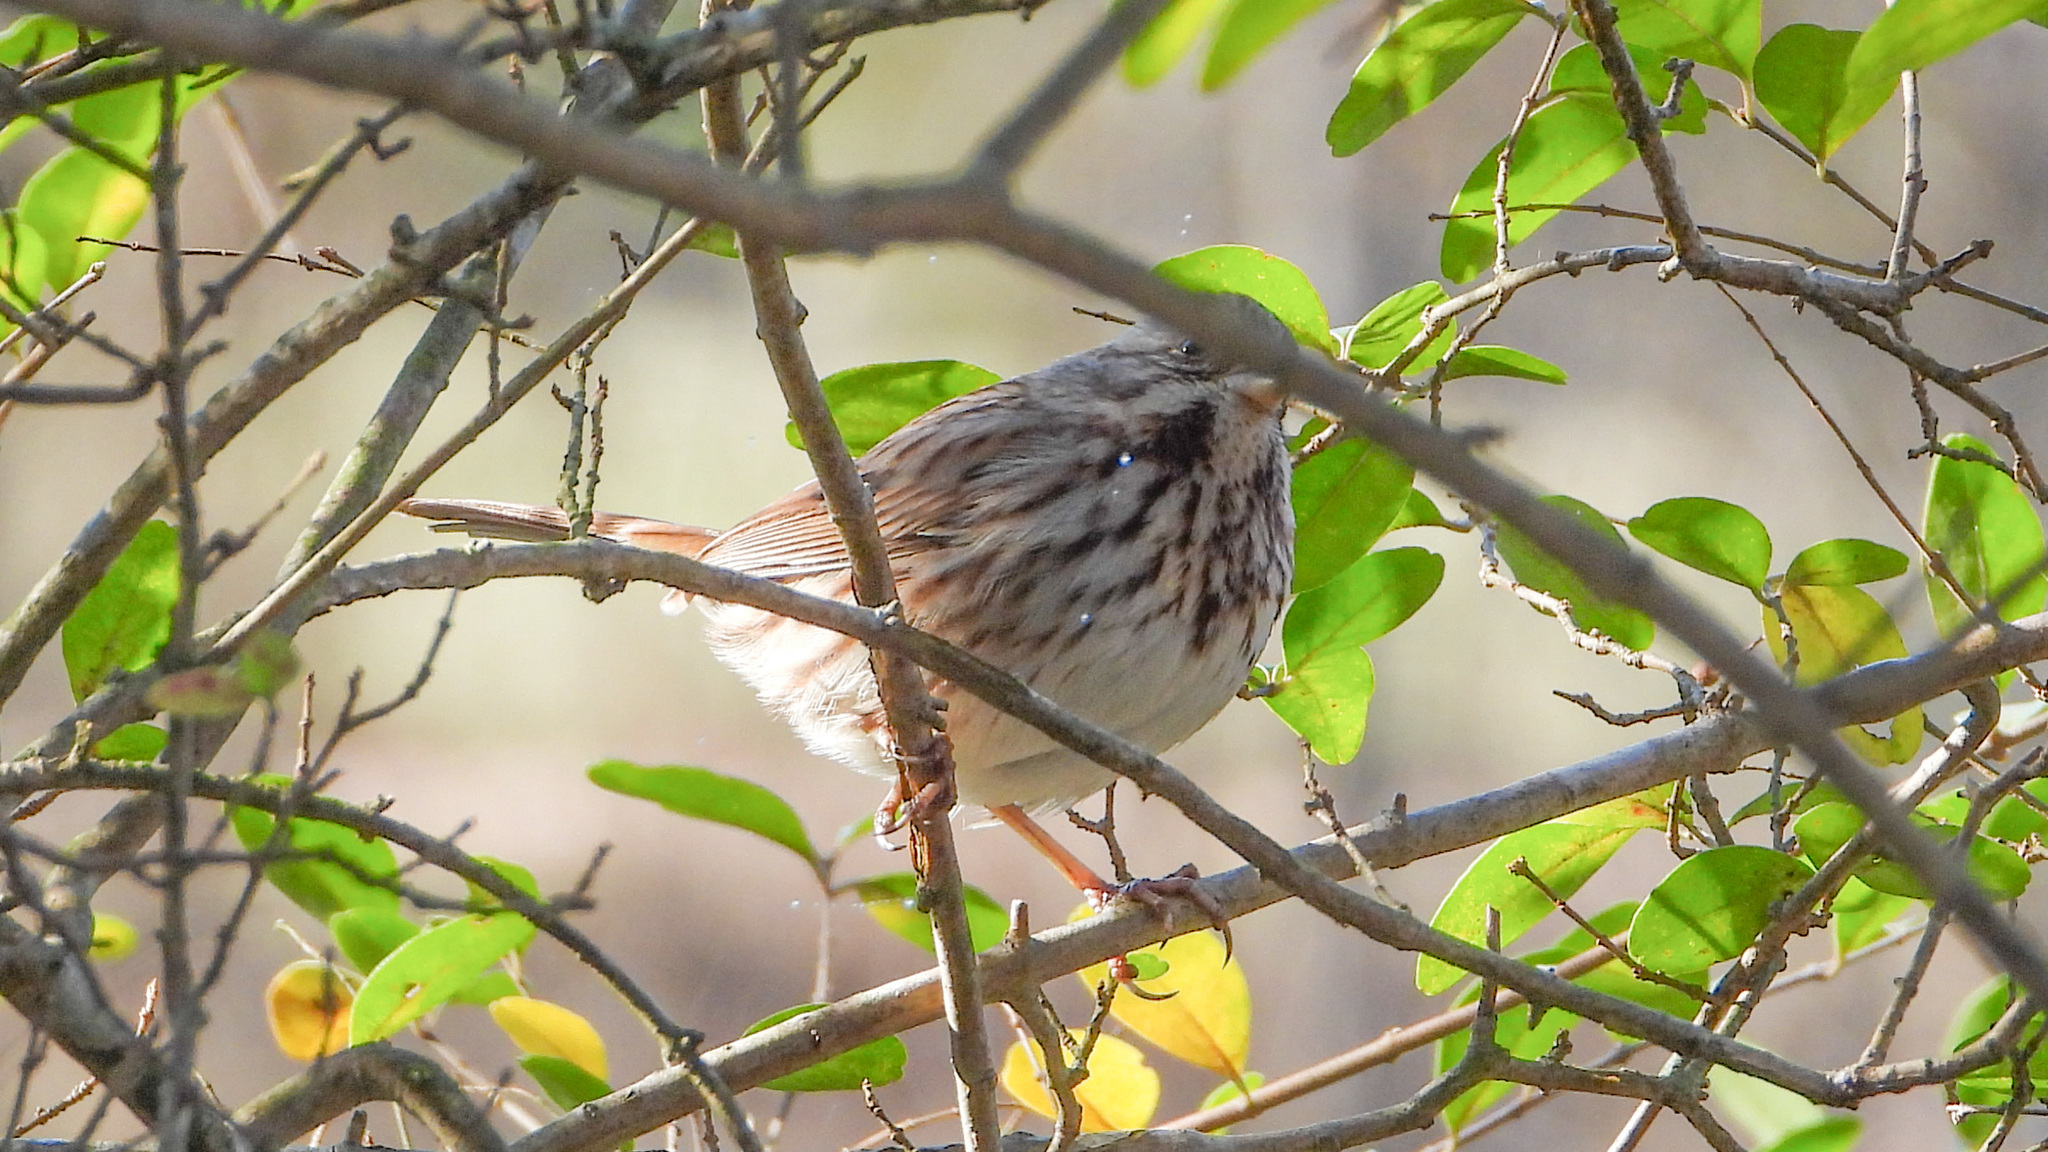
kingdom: Animalia
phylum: Chordata
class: Aves
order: Passeriformes
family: Passerellidae
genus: Melospiza
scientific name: Melospiza melodia
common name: Song sparrow
